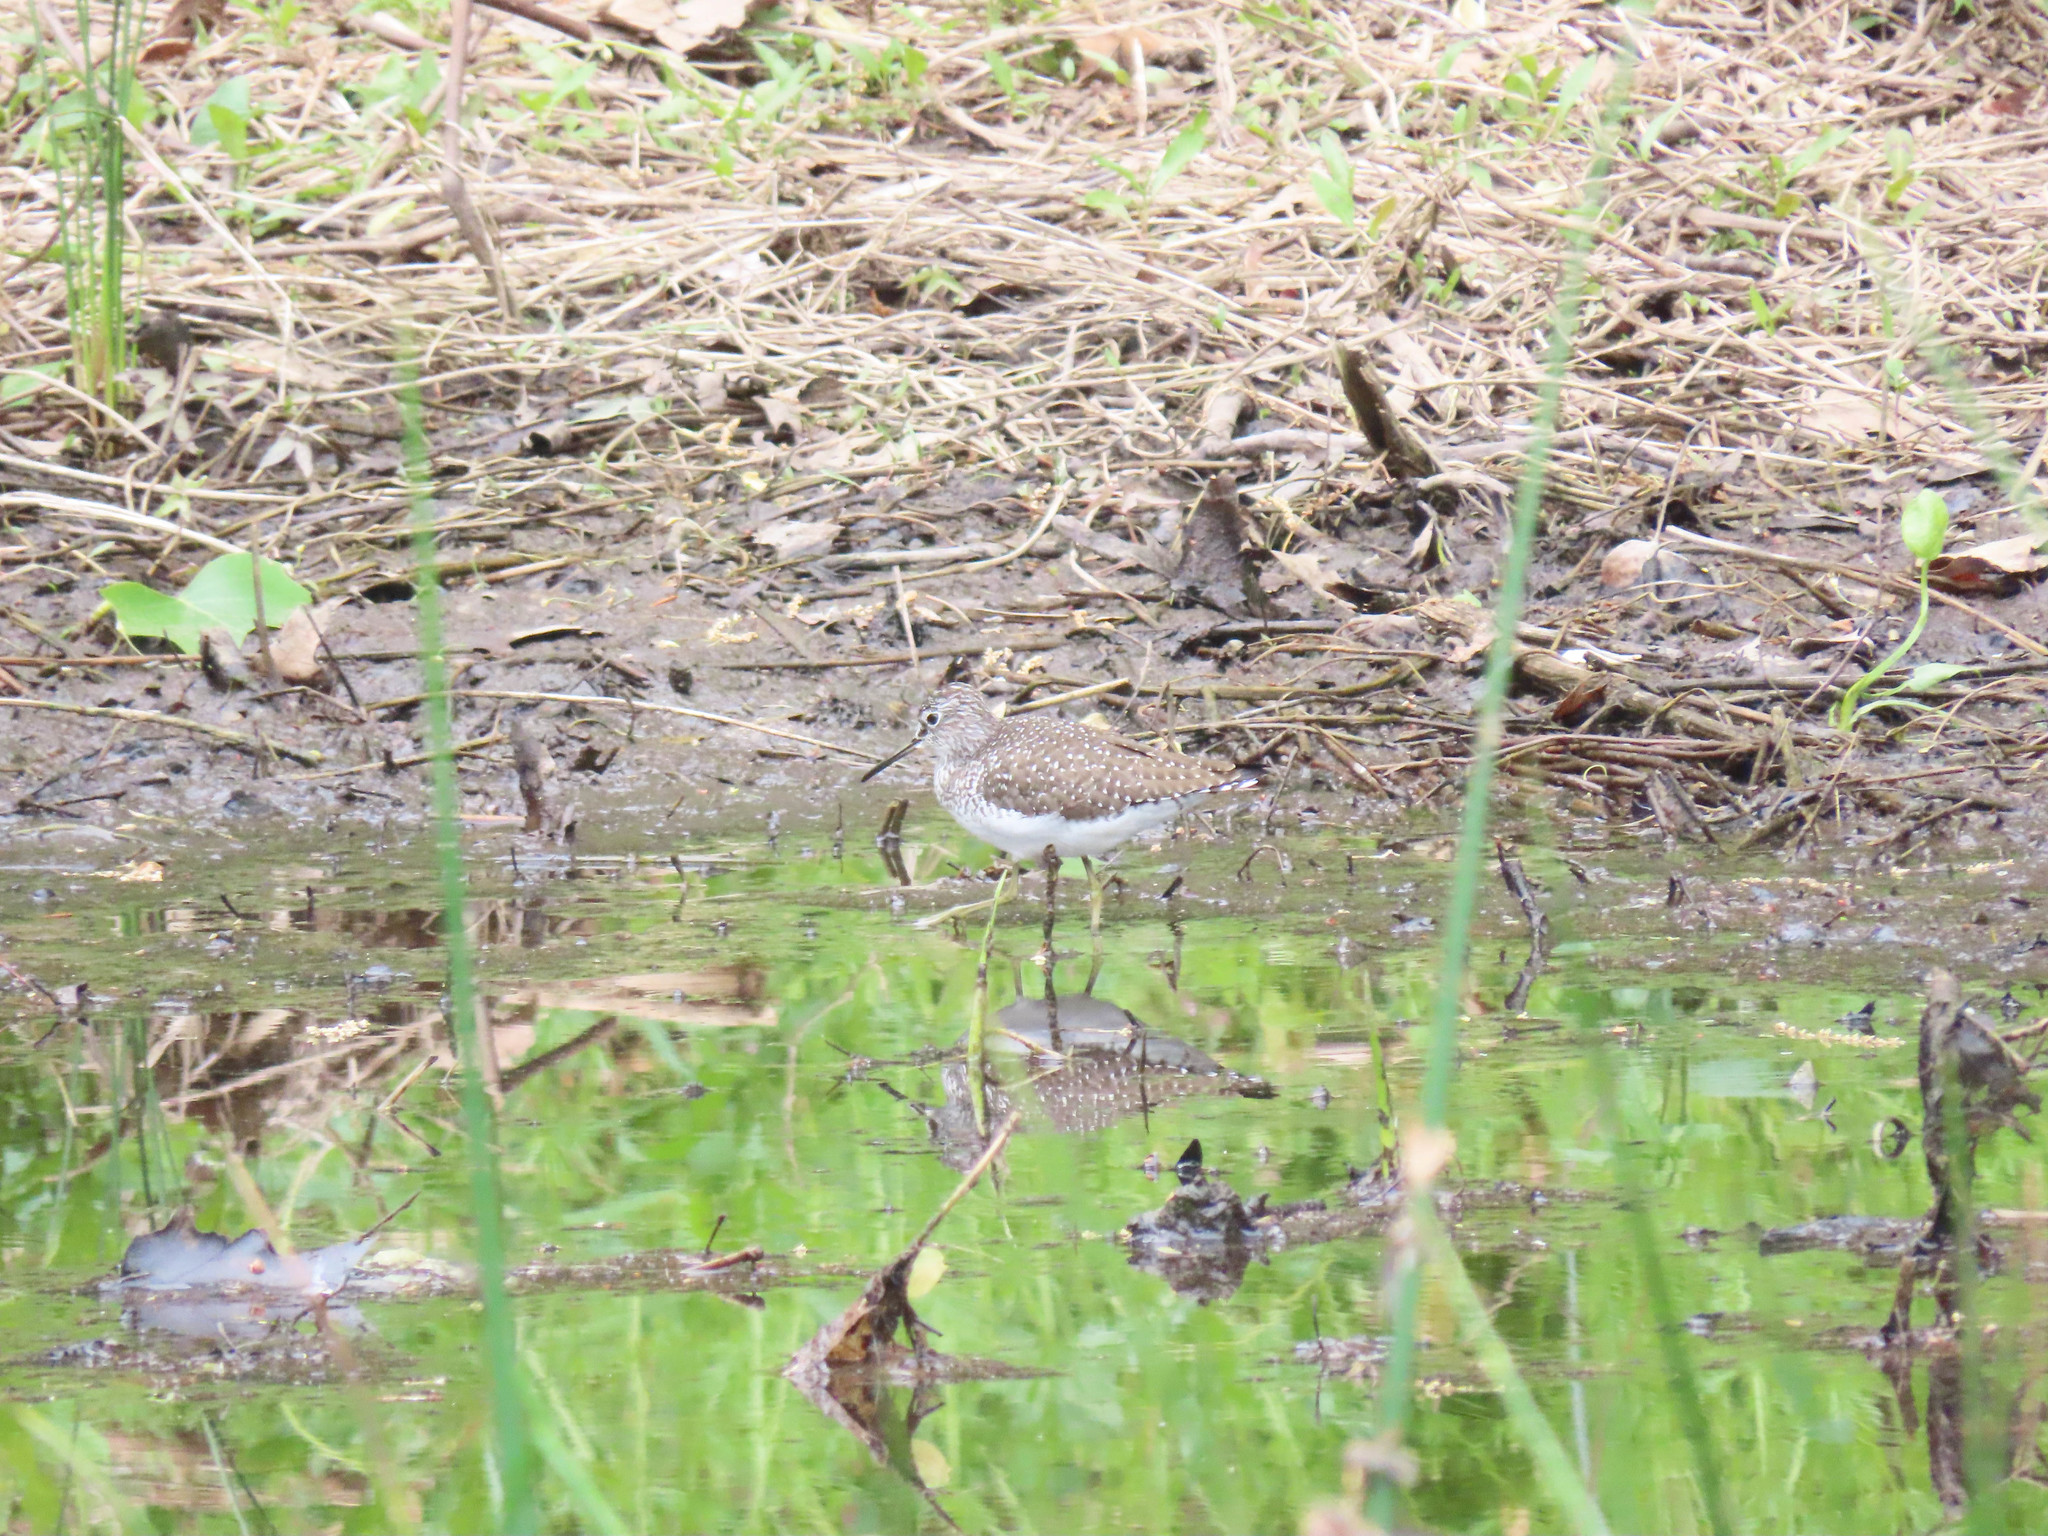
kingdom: Animalia
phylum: Chordata
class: Aves
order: Charadriiformes
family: Scolopacidae
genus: Tringa
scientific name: Tringa solitaria
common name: Solitary sandpiper
